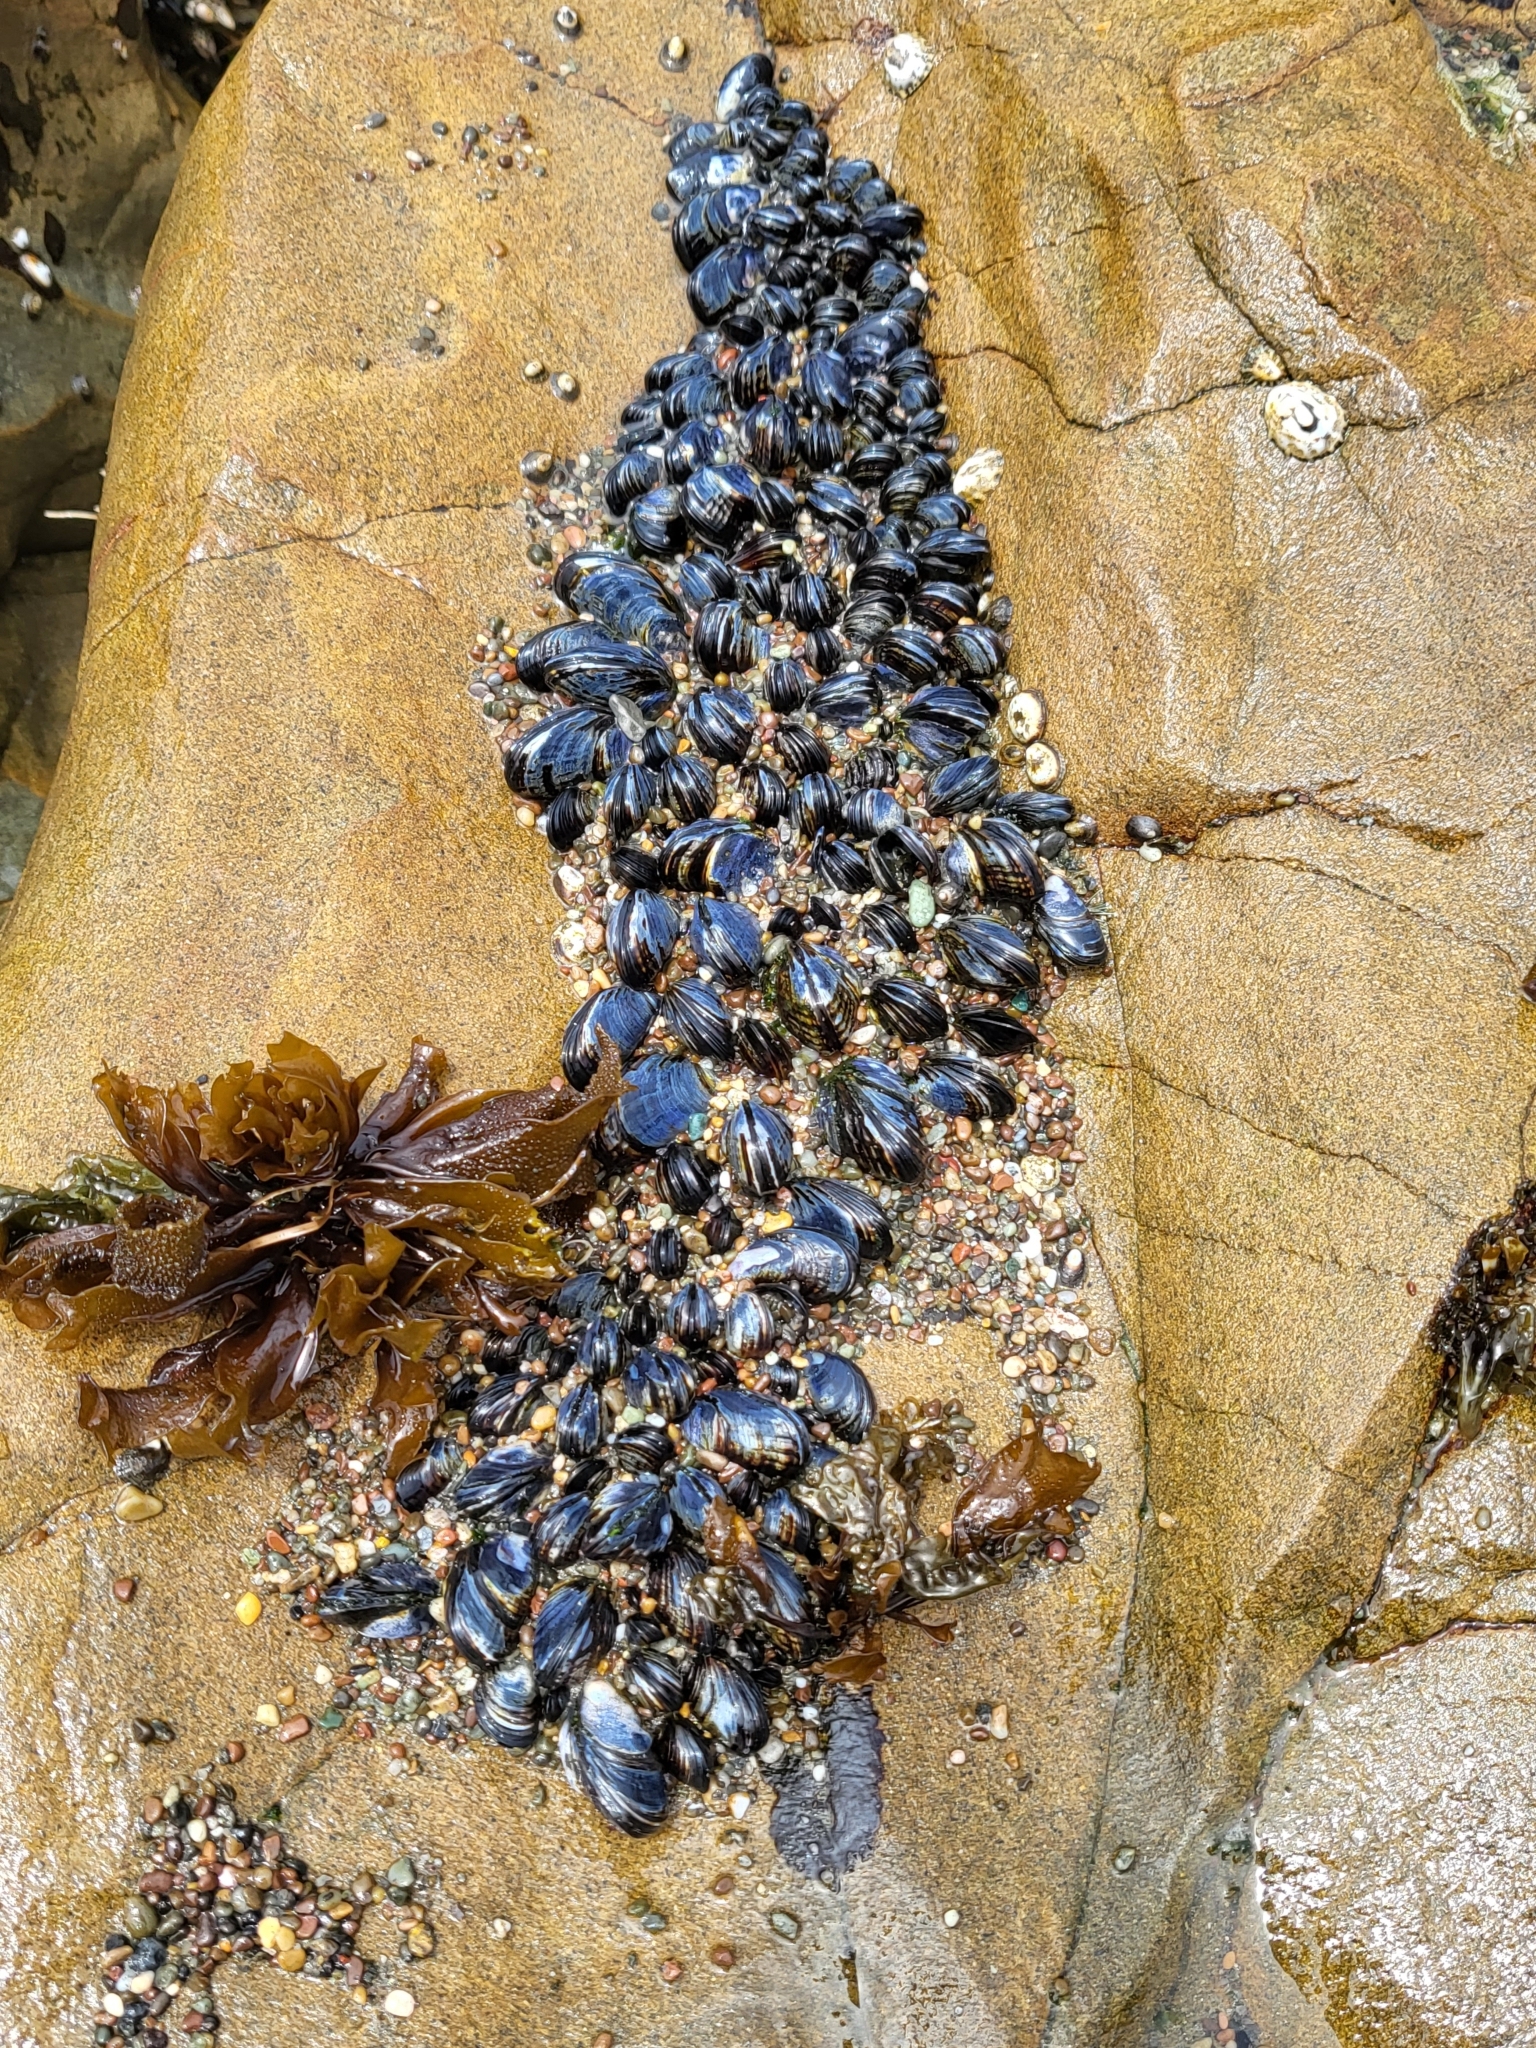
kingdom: Animalia
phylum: Mollusca
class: Bivalvia
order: Mytilida
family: Mytilidae
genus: Mytilus
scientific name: Mytilus californianus
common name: California mussel
